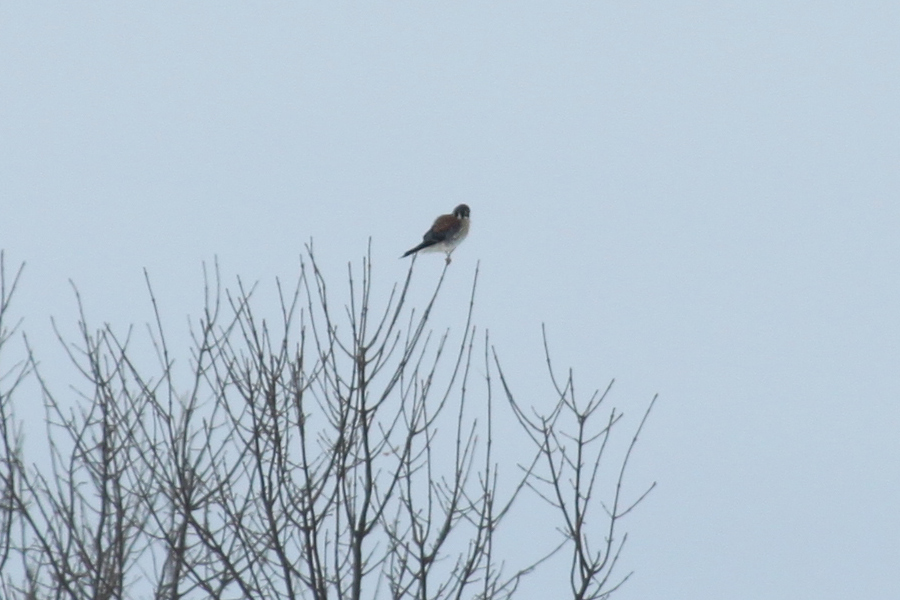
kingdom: Animalia
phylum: Chordata
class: Aves
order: Falconiformes
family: Falconidae
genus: Falco
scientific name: Falco sparverius
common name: American kestrel
